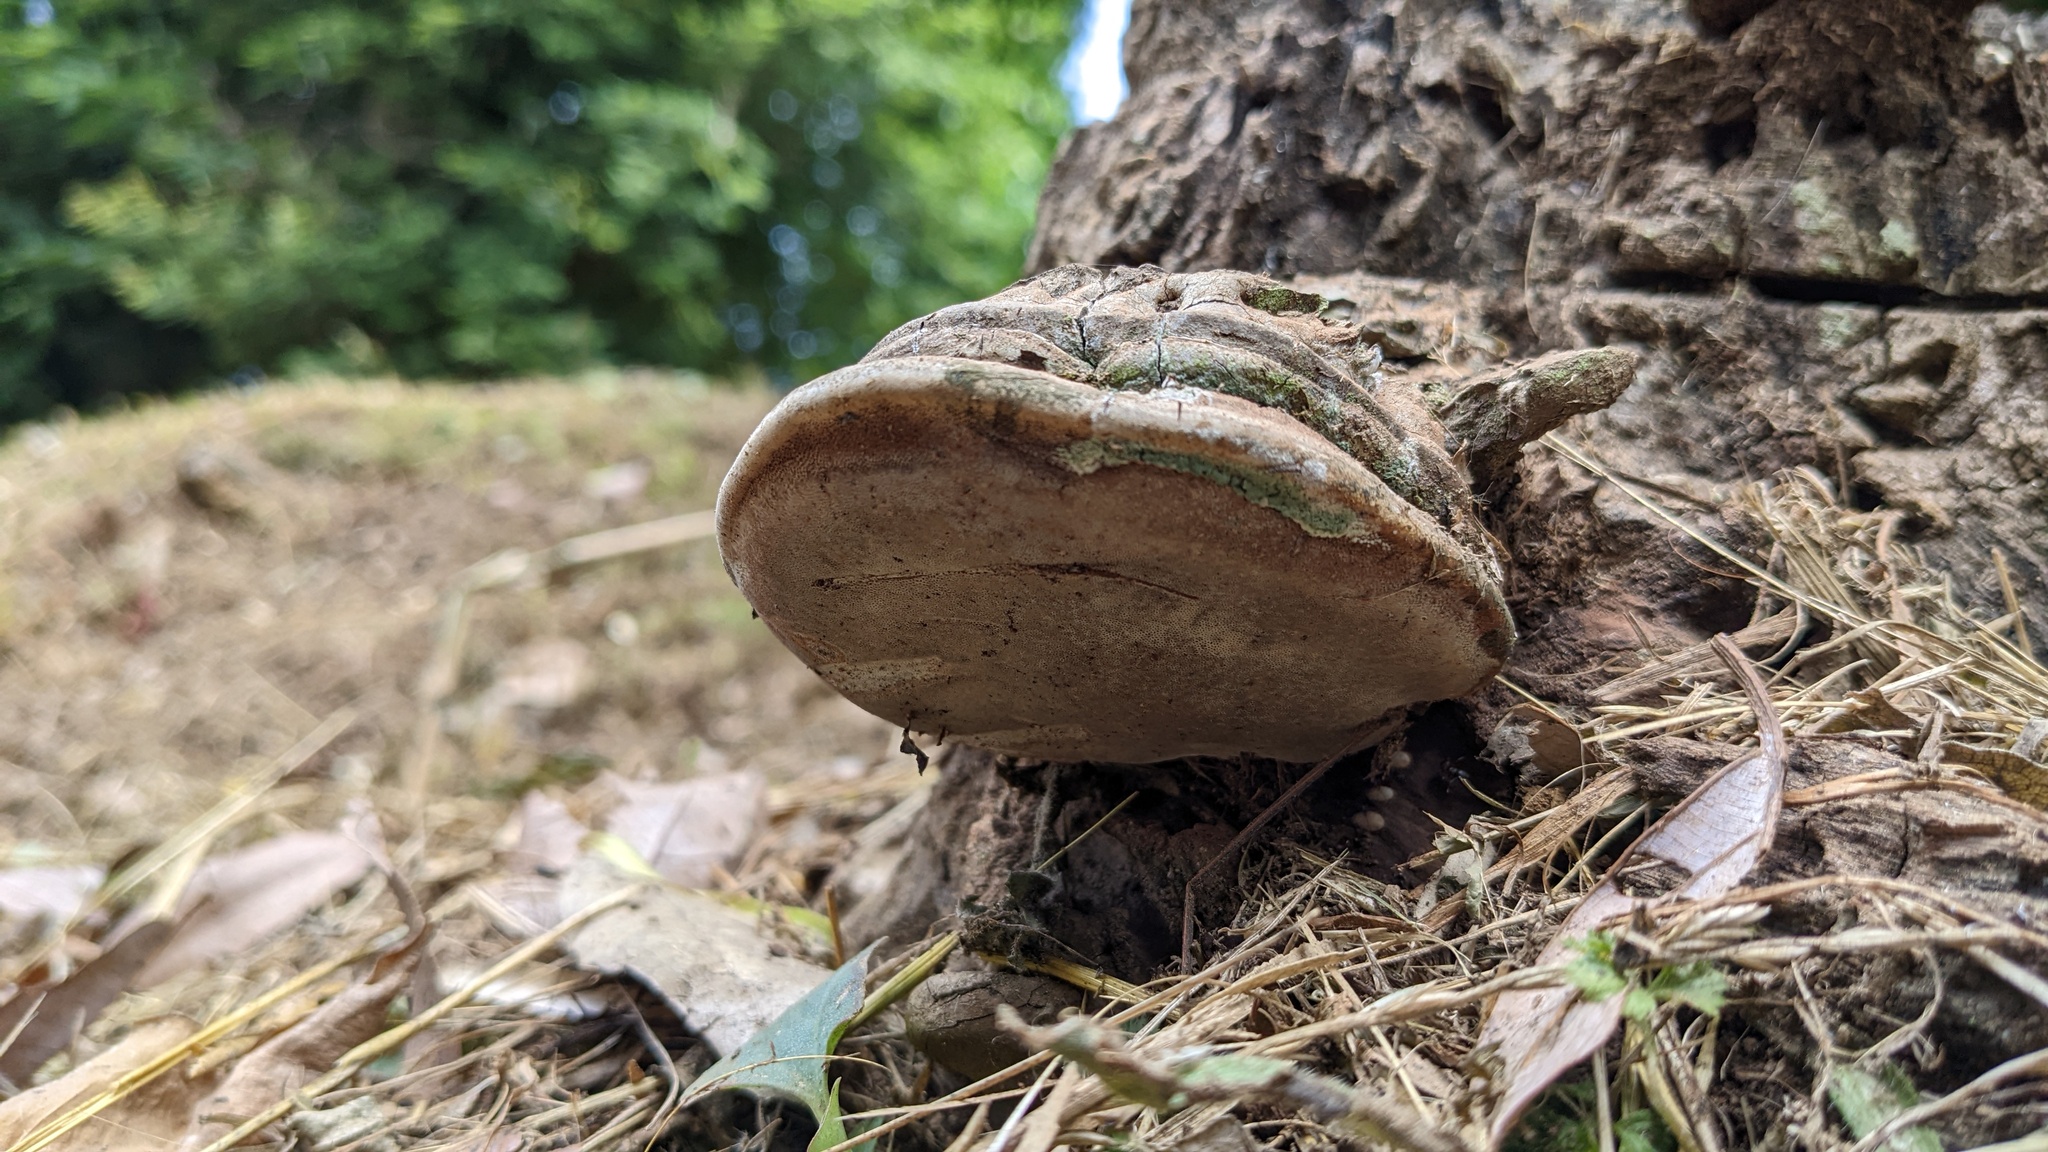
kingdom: Fungi
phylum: Basidiomycota
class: Agaricomycetes
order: Polyporales
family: Polyporaceae
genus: Ganoderma
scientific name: Ganoderma applanatum
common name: Artist's bracket
